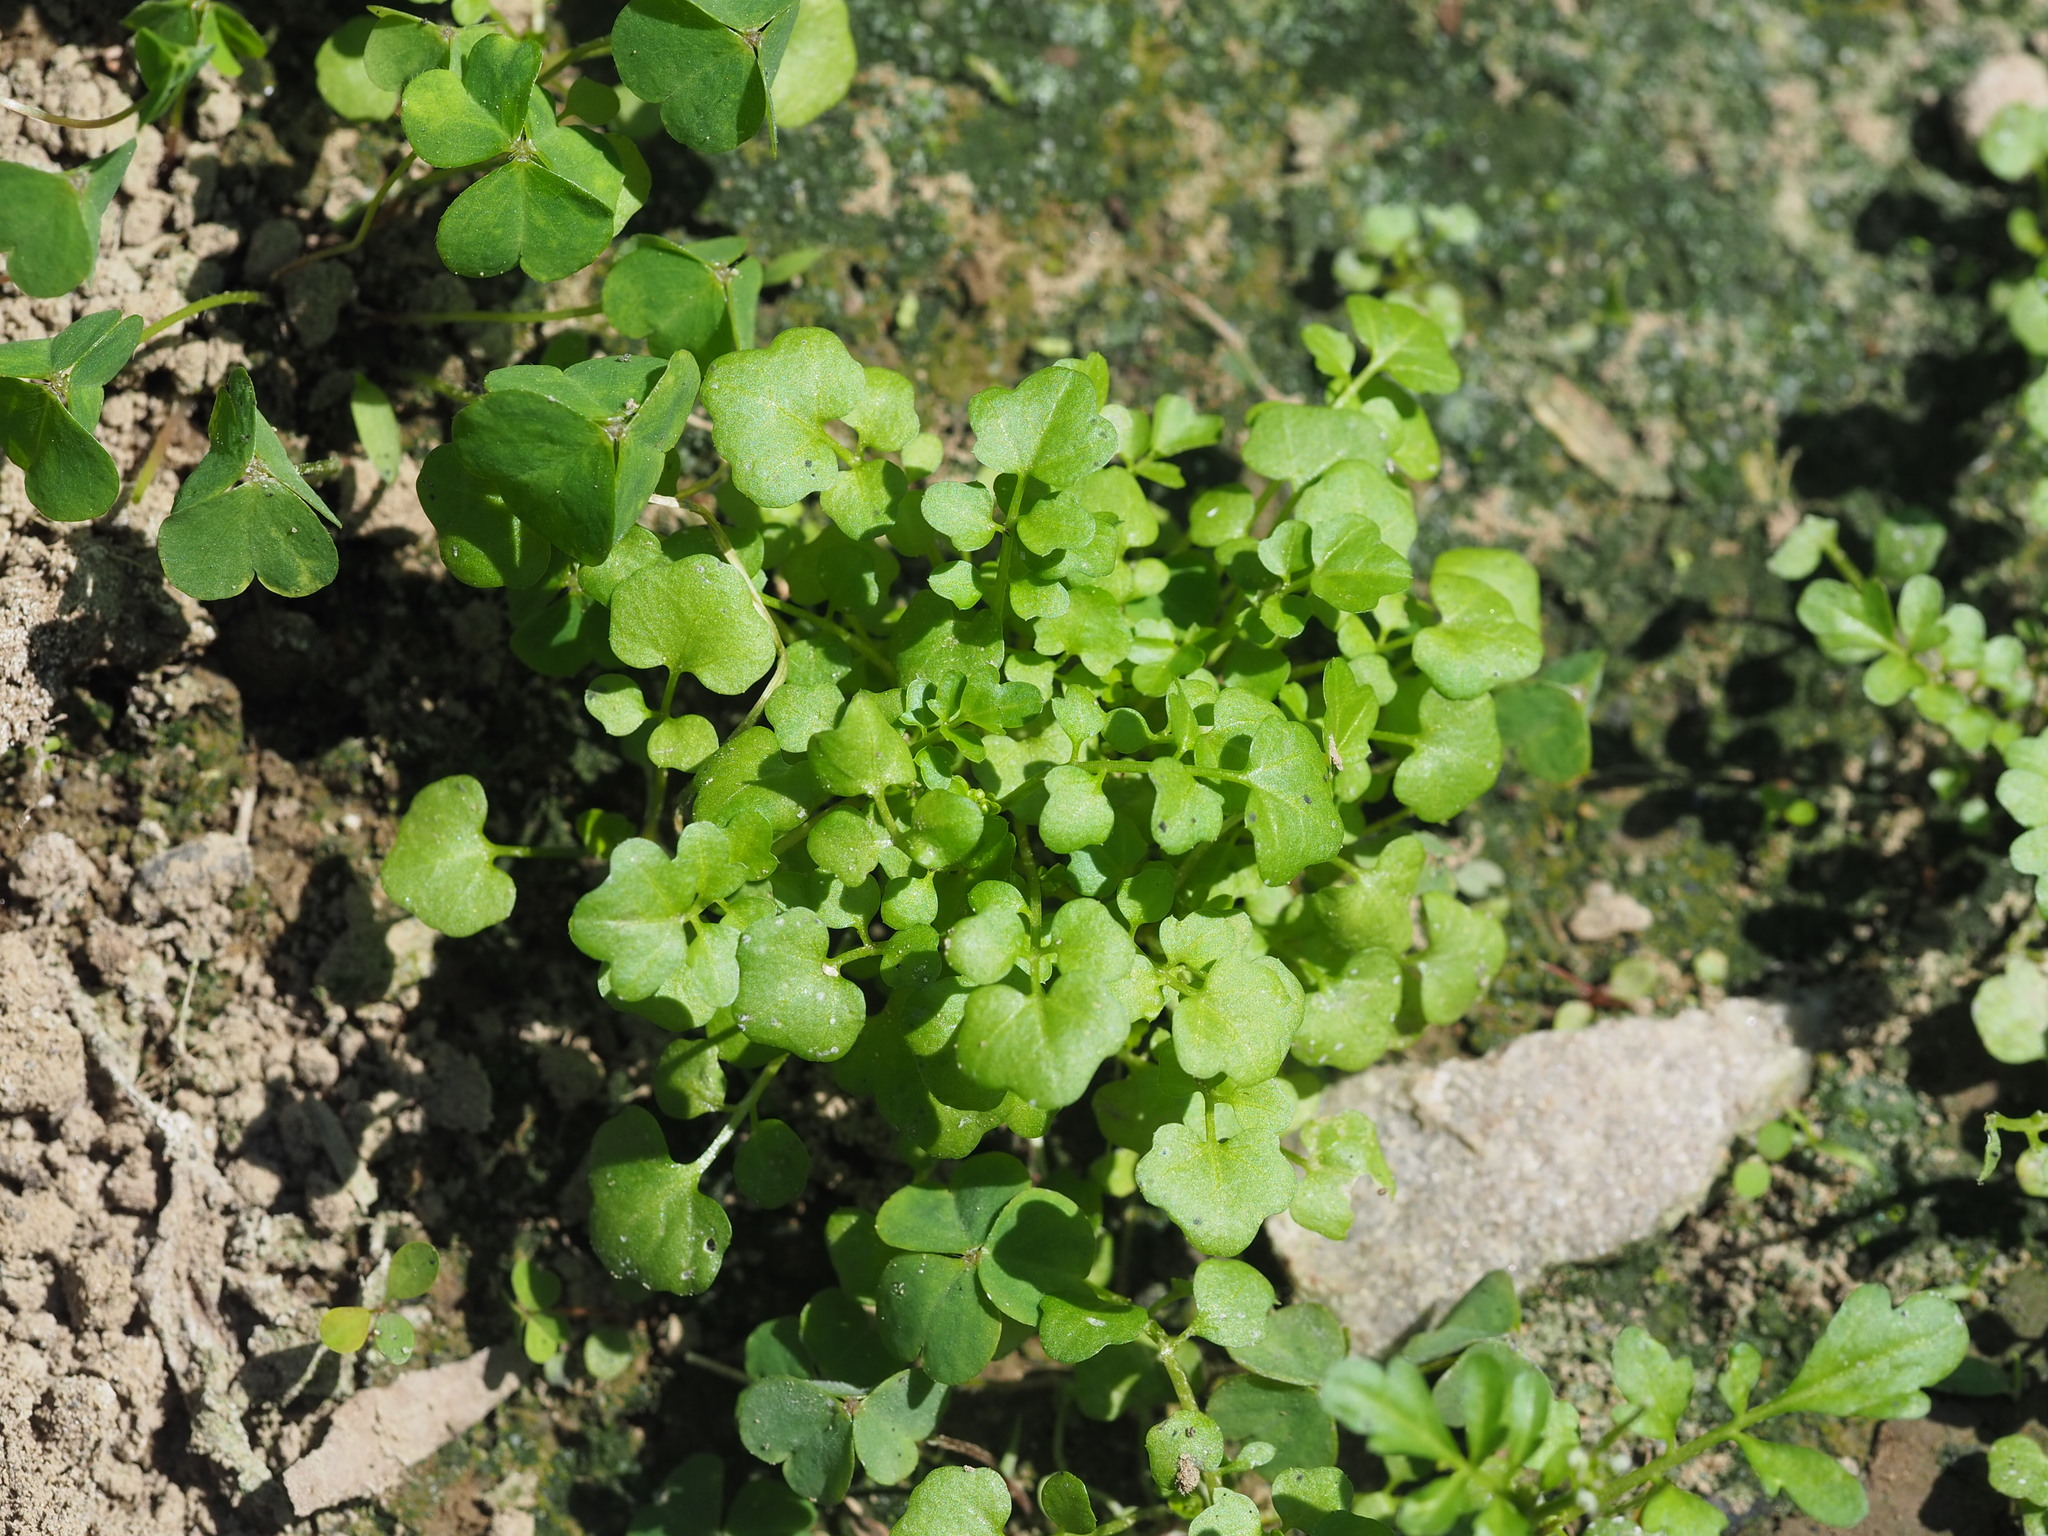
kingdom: Plantae
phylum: Tracheophyta
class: Magnoliopsida
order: Brassicales
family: Brassicaceae
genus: Cardamine
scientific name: Cardamine flexuosa
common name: Woodland bittercress
